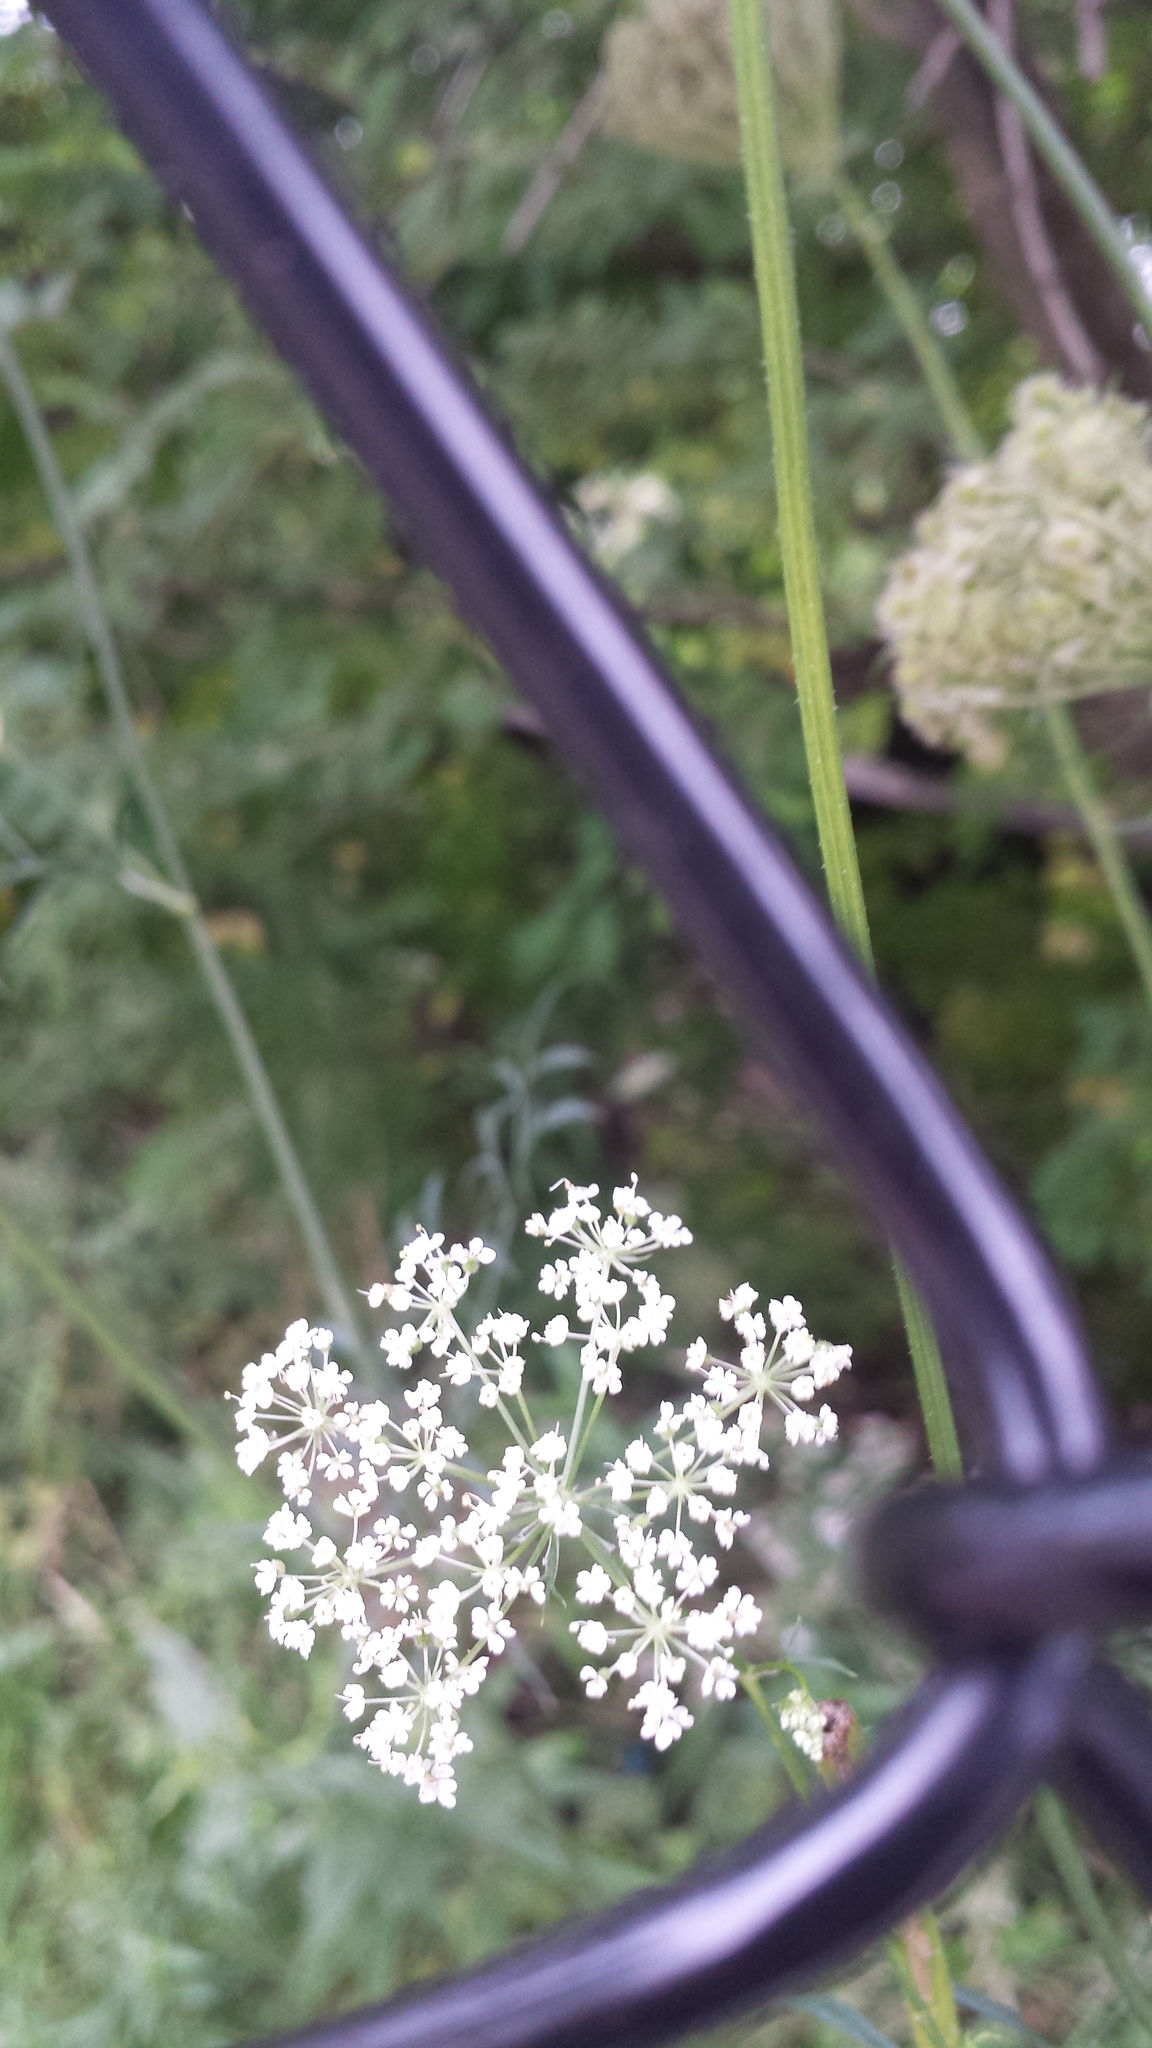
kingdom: Plantae
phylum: Tracheophyta
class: Magnoliopsida
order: Apiales
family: Apiaceae
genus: Daucus
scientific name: Daucus carota
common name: Wild carrot
